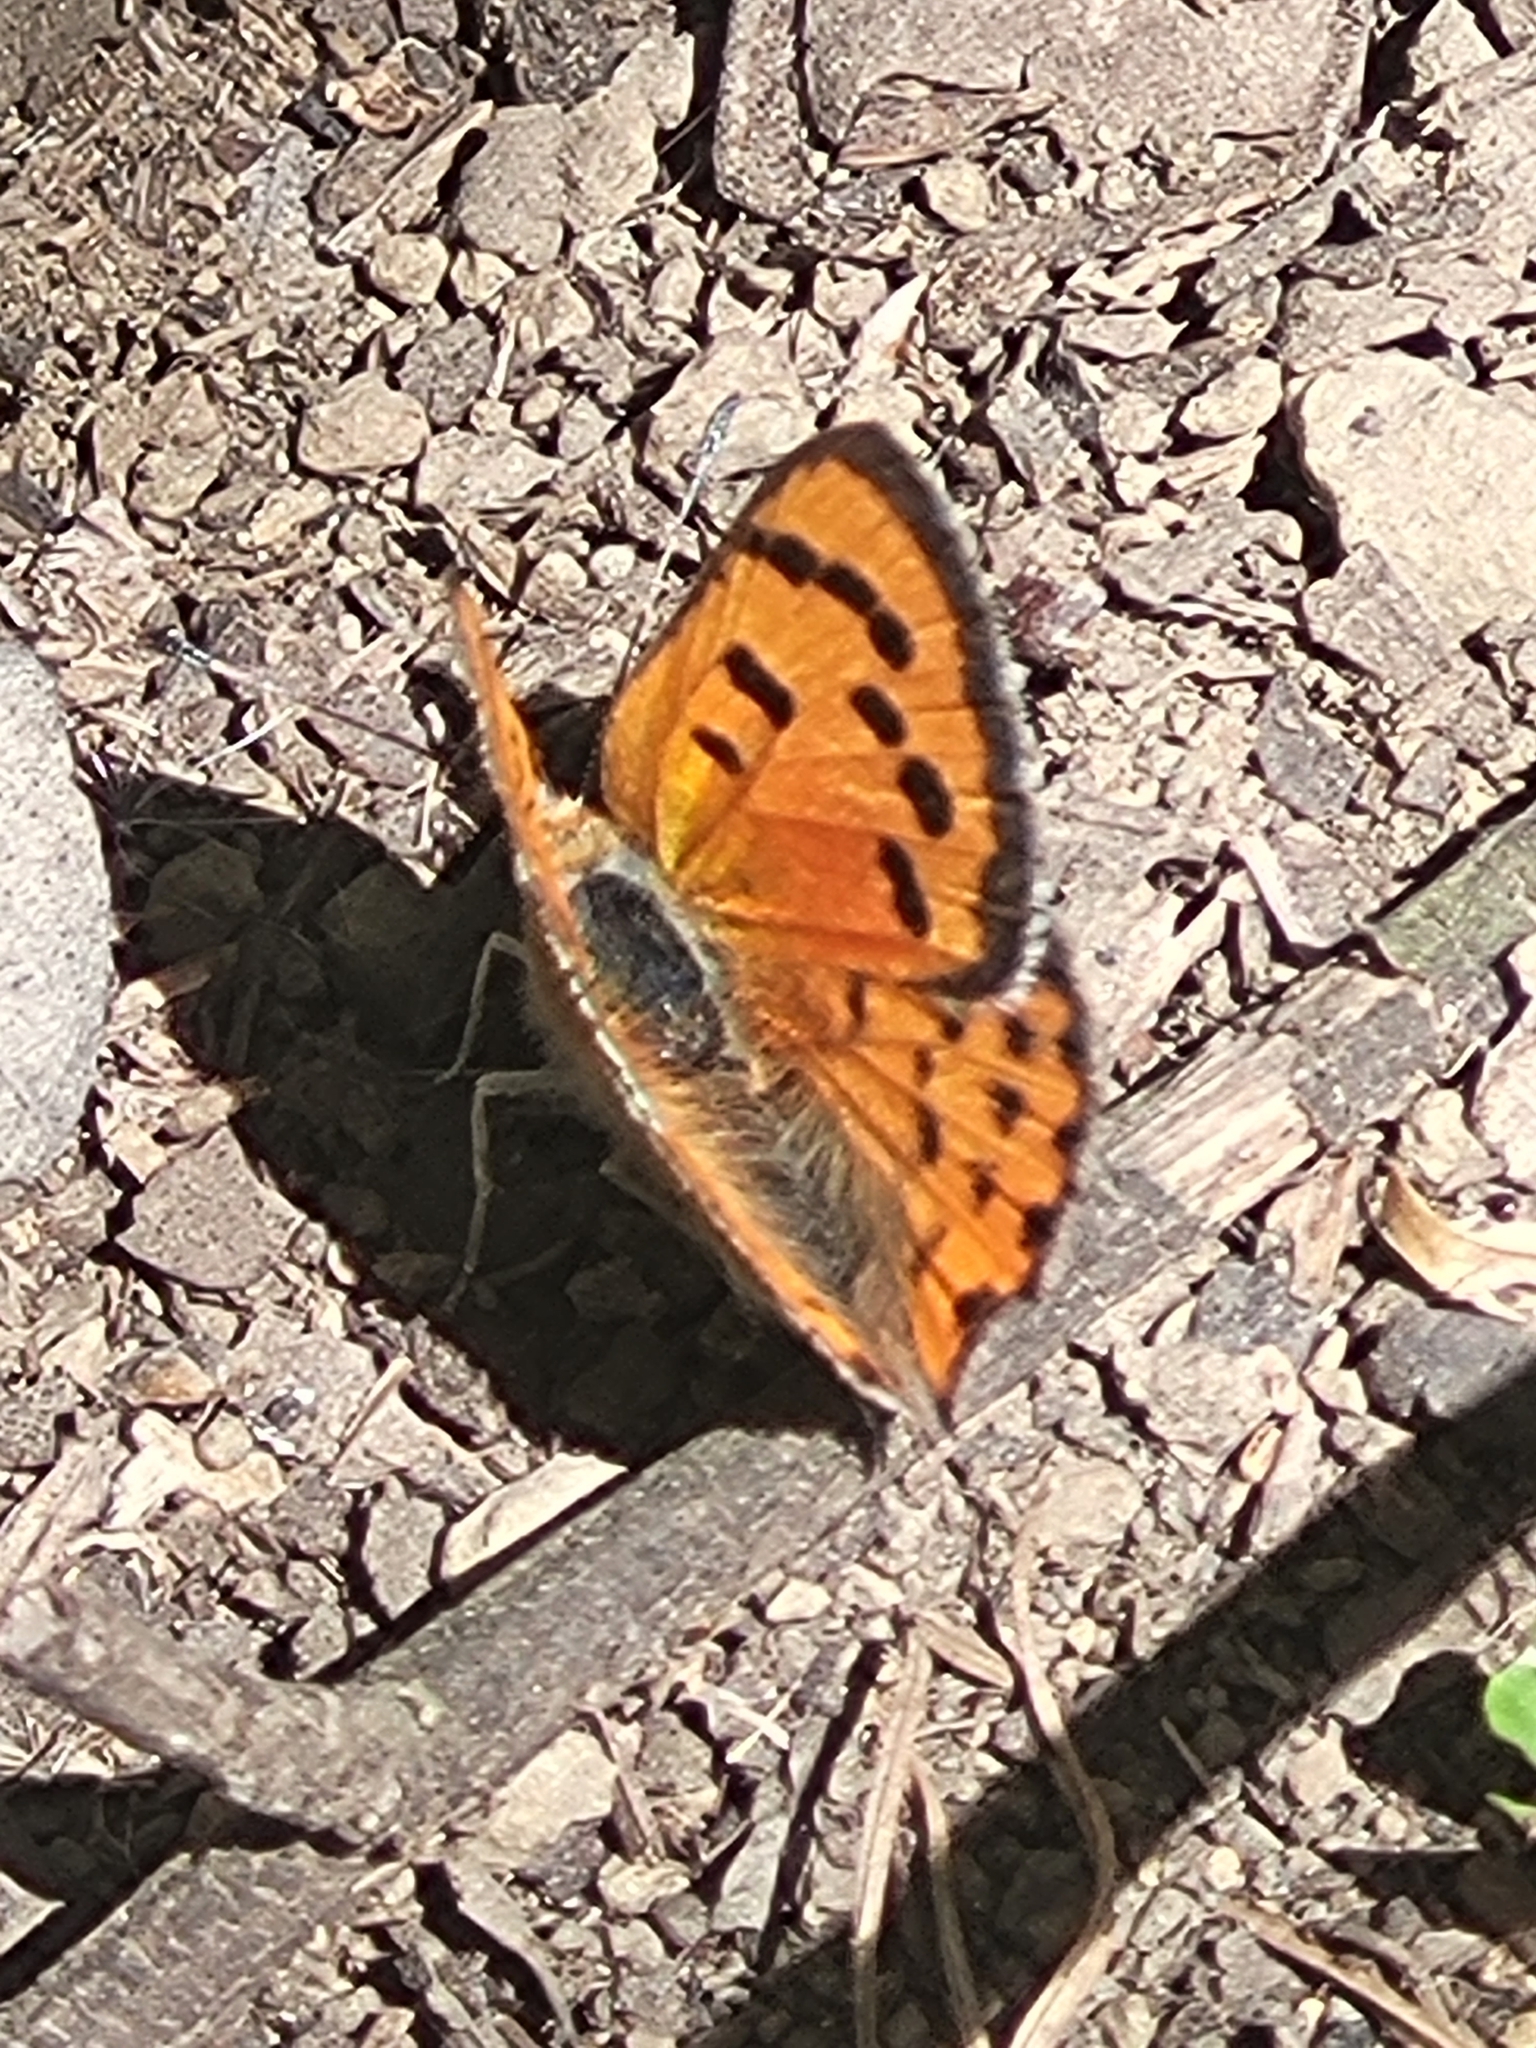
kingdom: Animalia
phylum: Arthropoda
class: Insecta
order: Lepidoptera
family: Lycaenidae
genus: Lycaena
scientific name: Lycaena phlaeas
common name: Small copper
